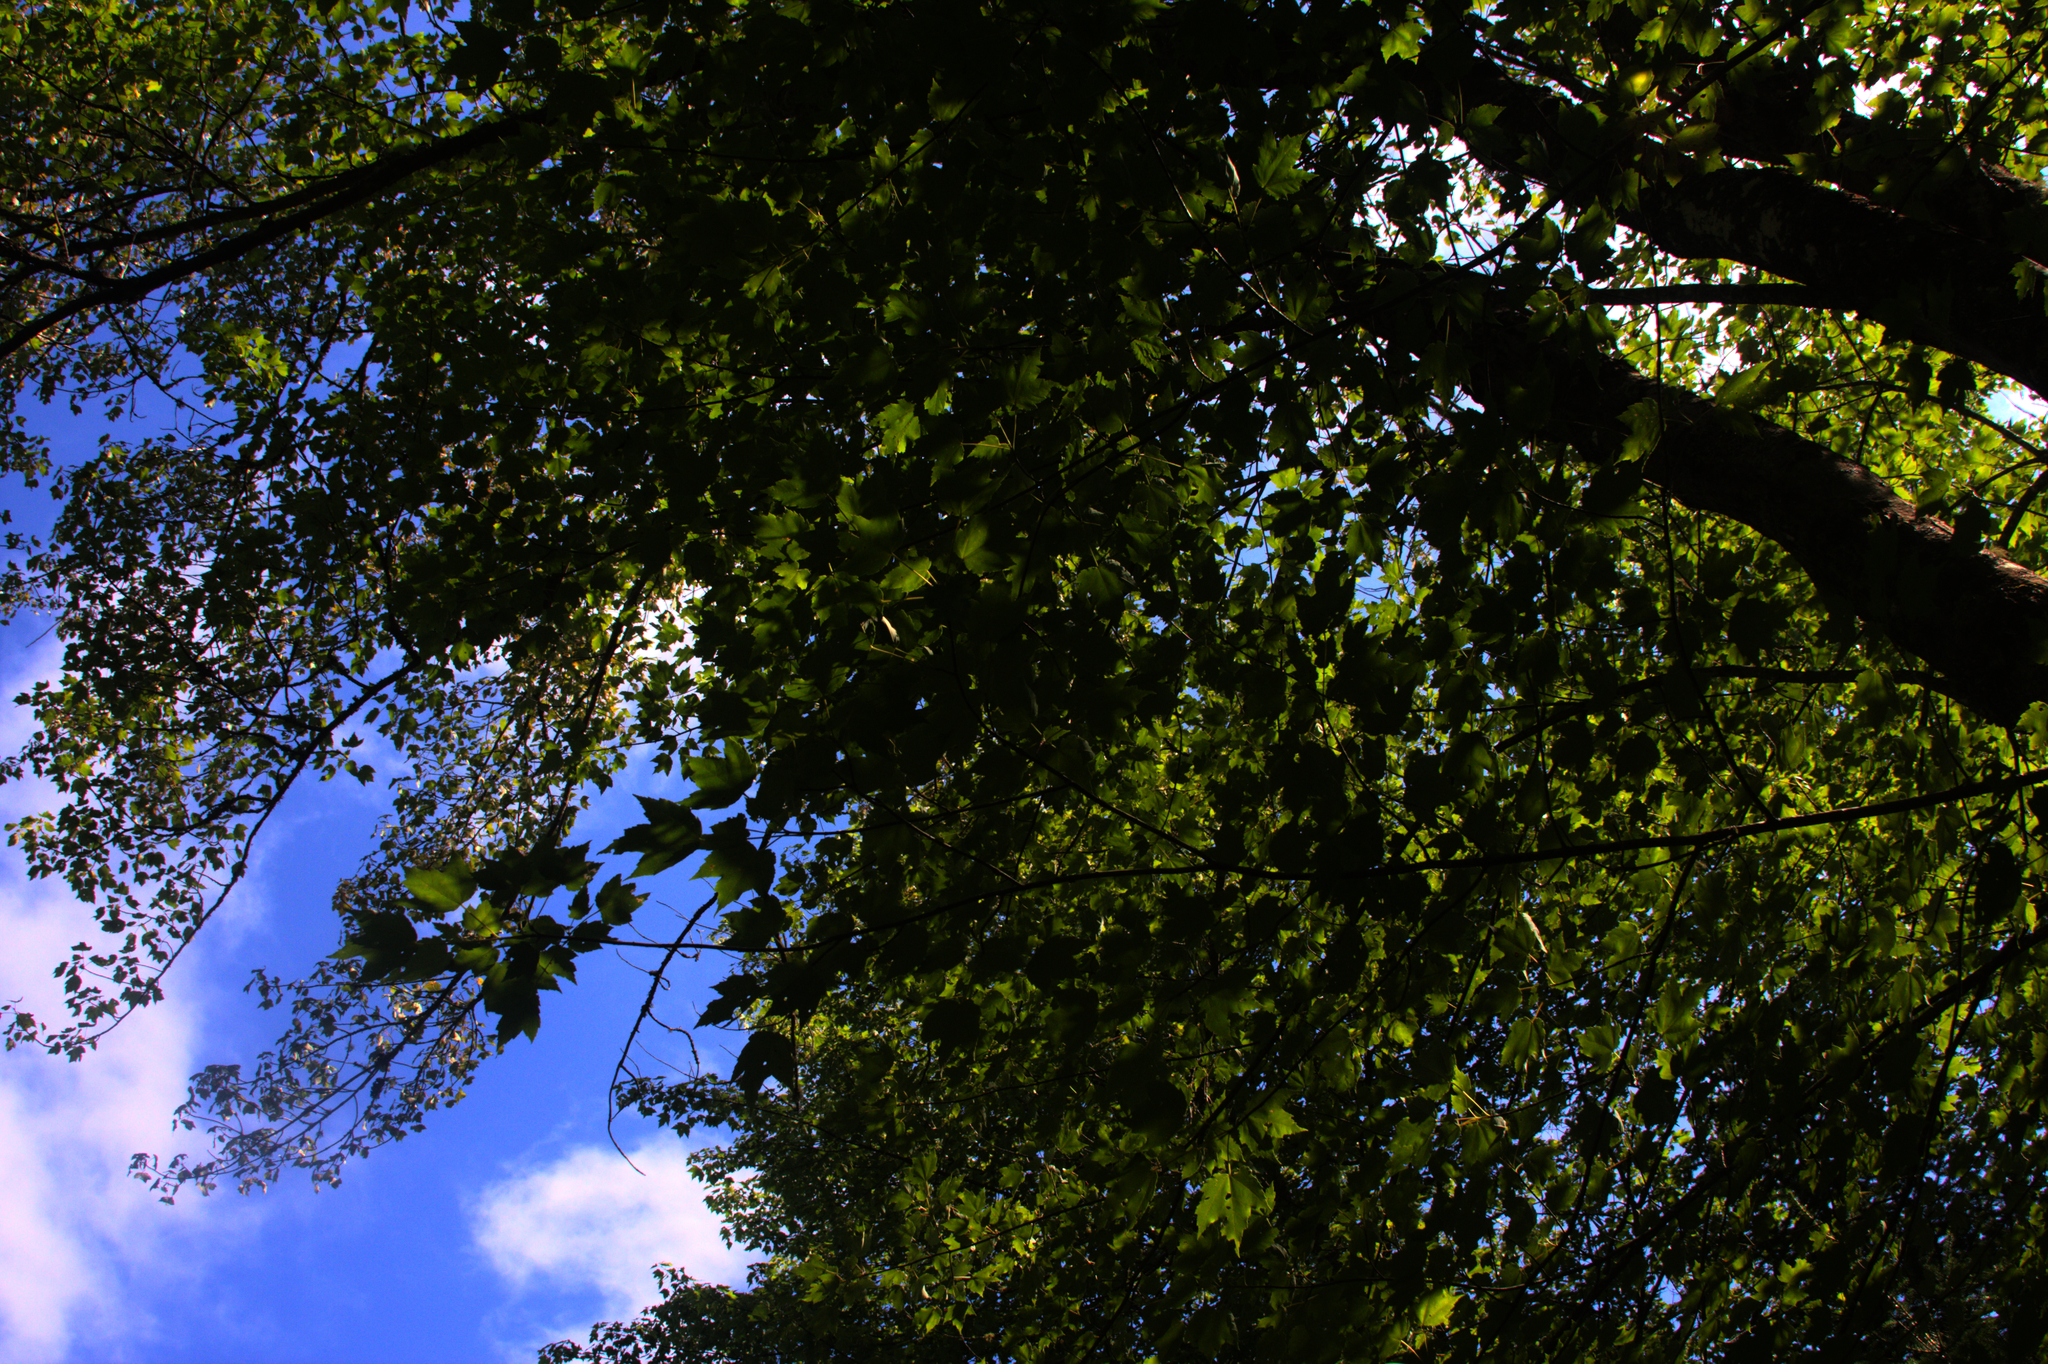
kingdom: Plantae
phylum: Tracheophyta
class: Magnoliopsida
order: Sapindales
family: Sapindaceae
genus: Acer
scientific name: Acer rubrum
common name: Red maple
